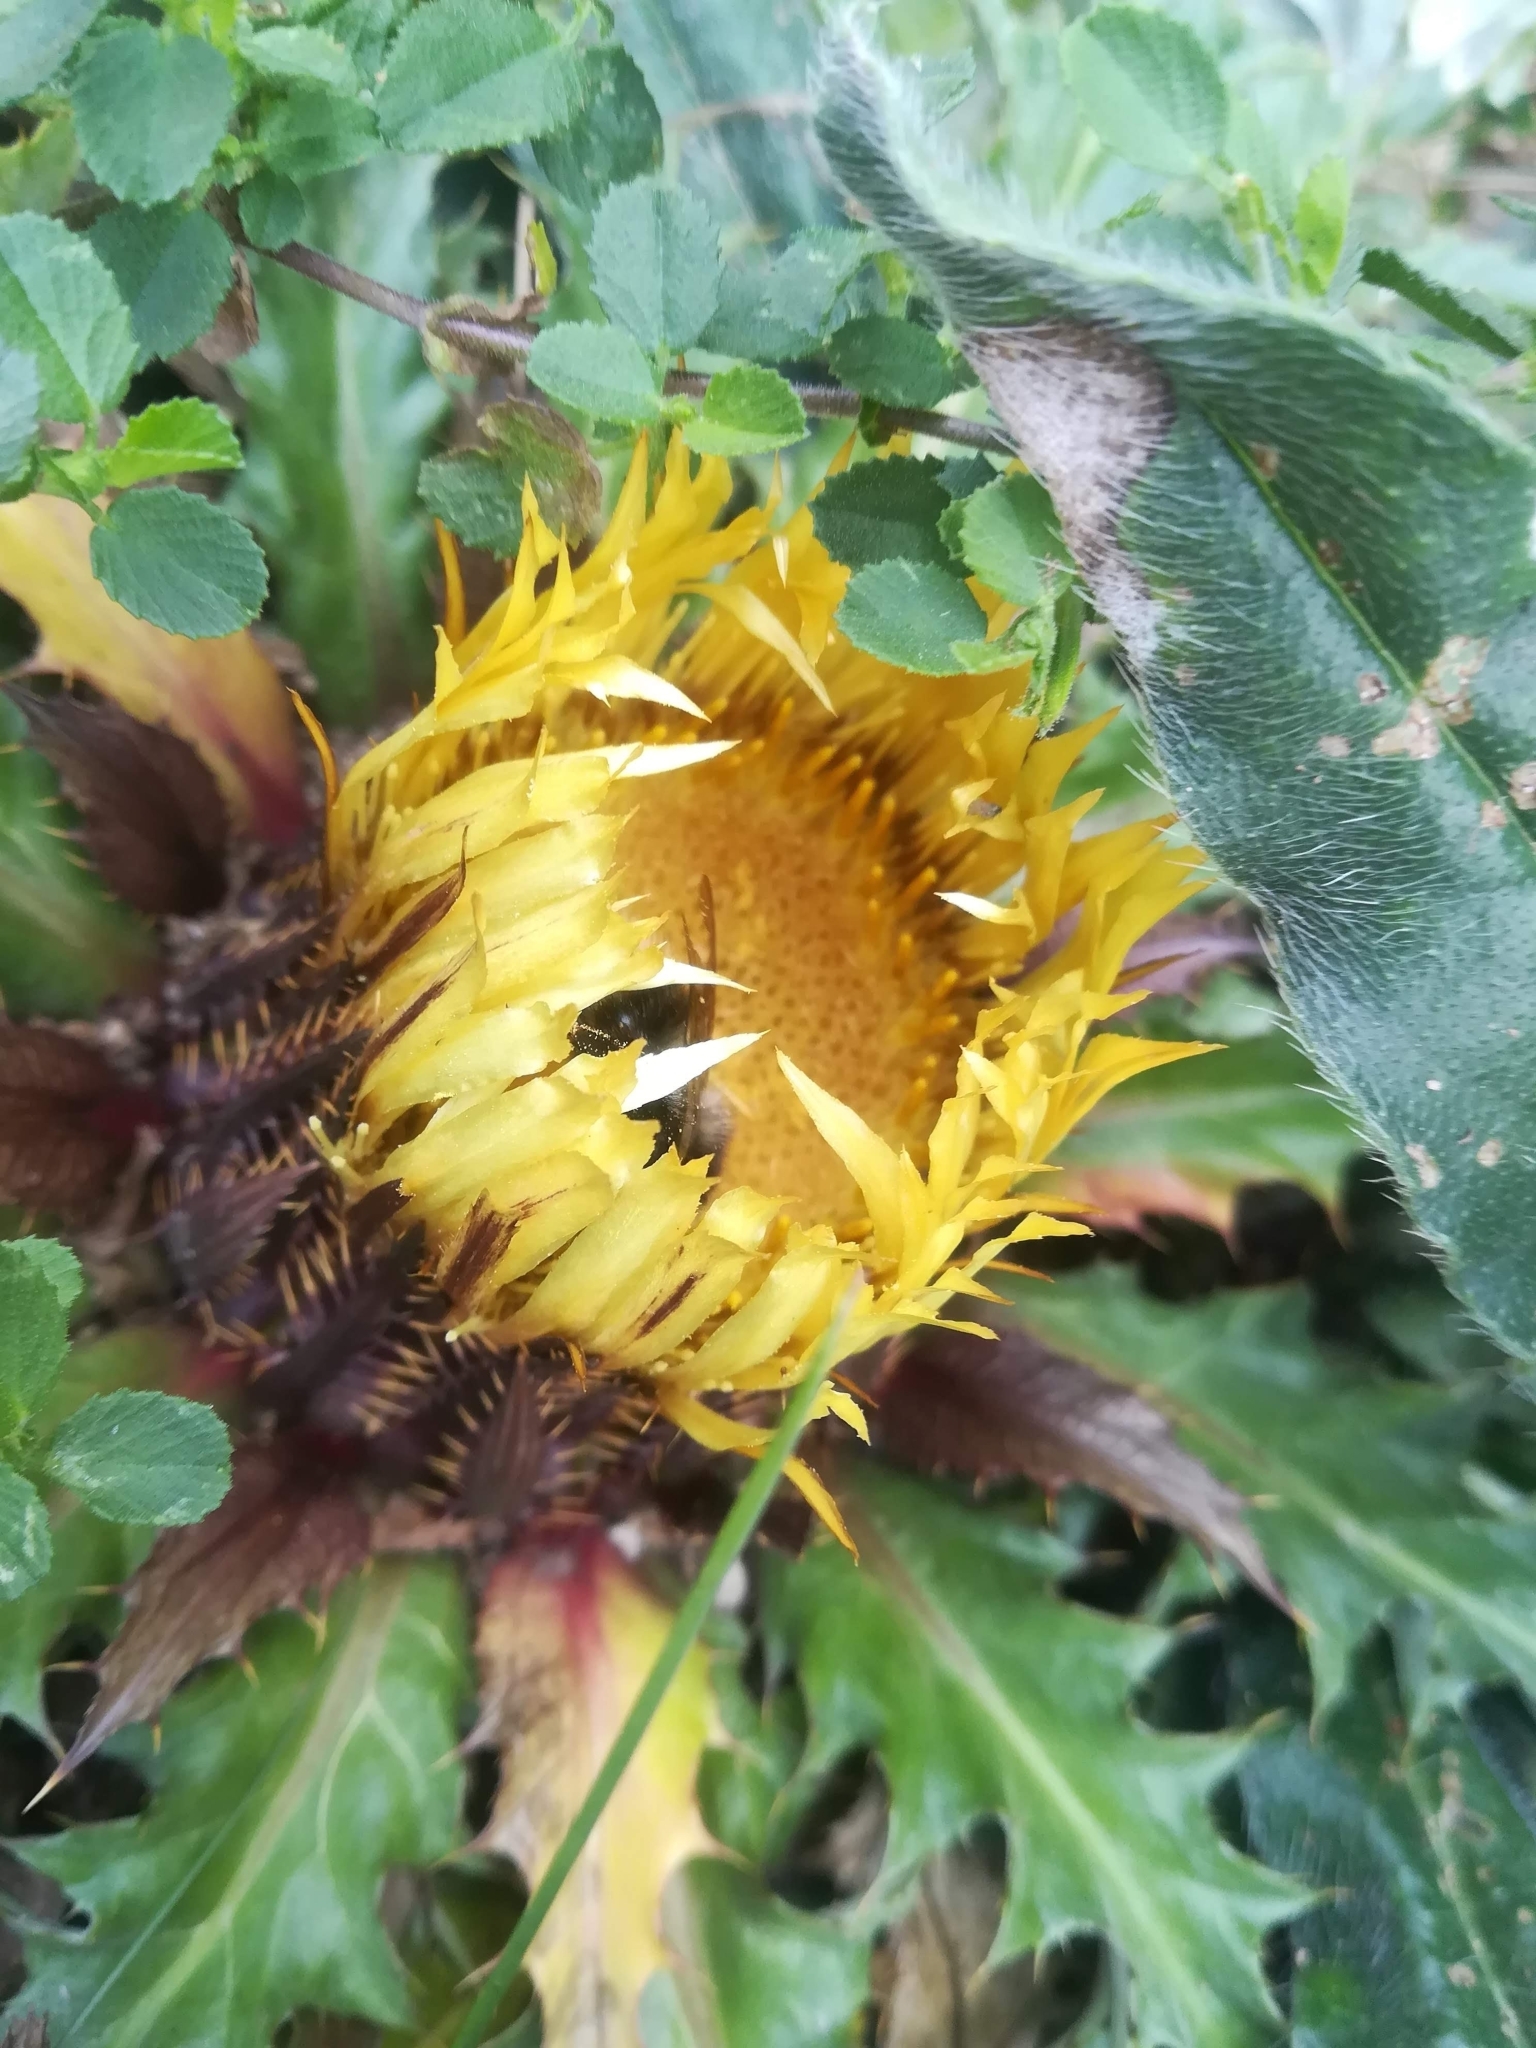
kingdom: Plantae
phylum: Tracheophyta
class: Magnoliopsida
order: Asterales
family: Asteraceae
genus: Carlina
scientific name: Carlina acanthifolia
